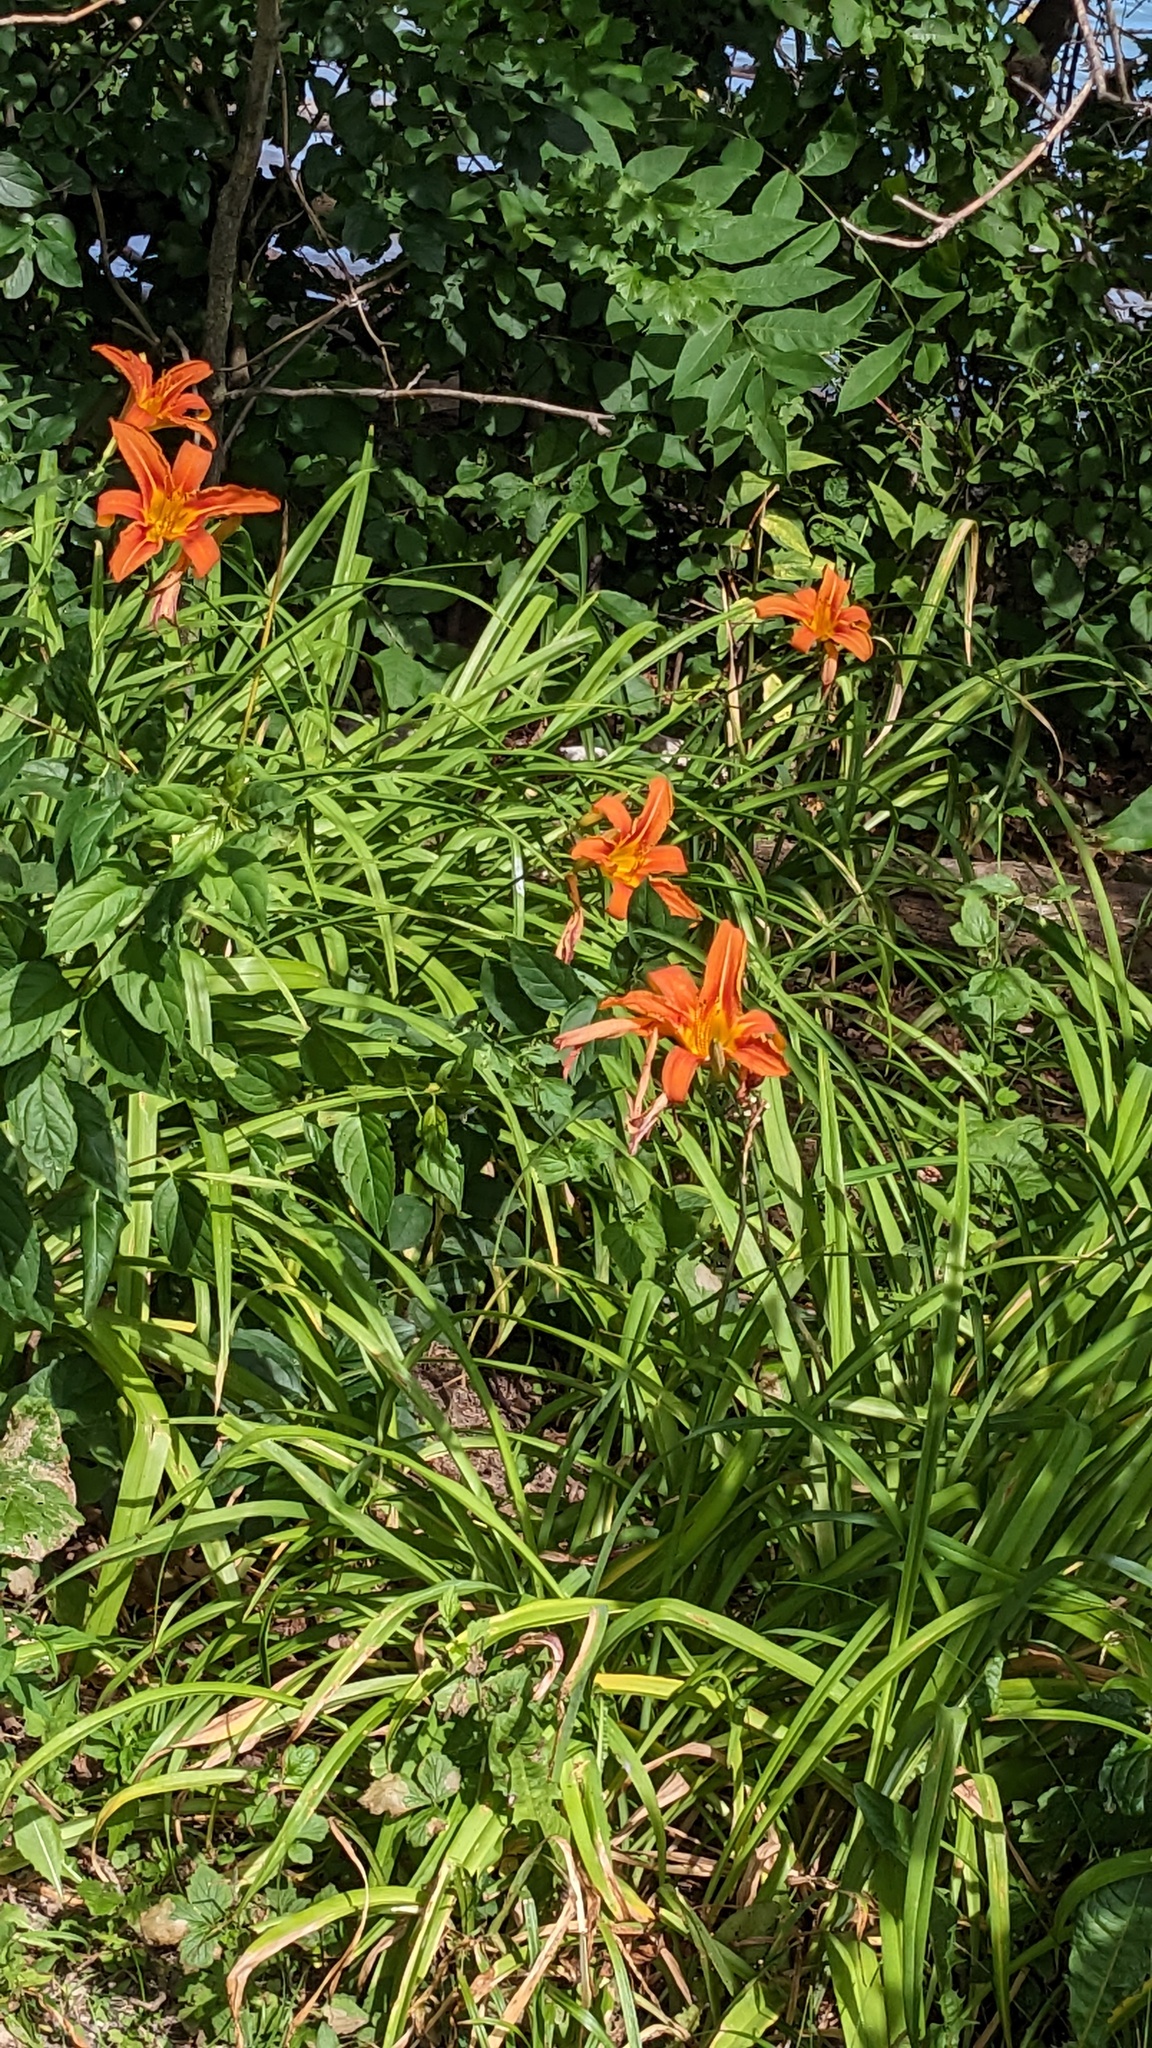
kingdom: Plantae
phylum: Tracheophyta
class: Liliopsida
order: Asparagales
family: Asphodelaceae
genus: Hemerocallis
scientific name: Hemerocallis fulva
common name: Orange day-lily
